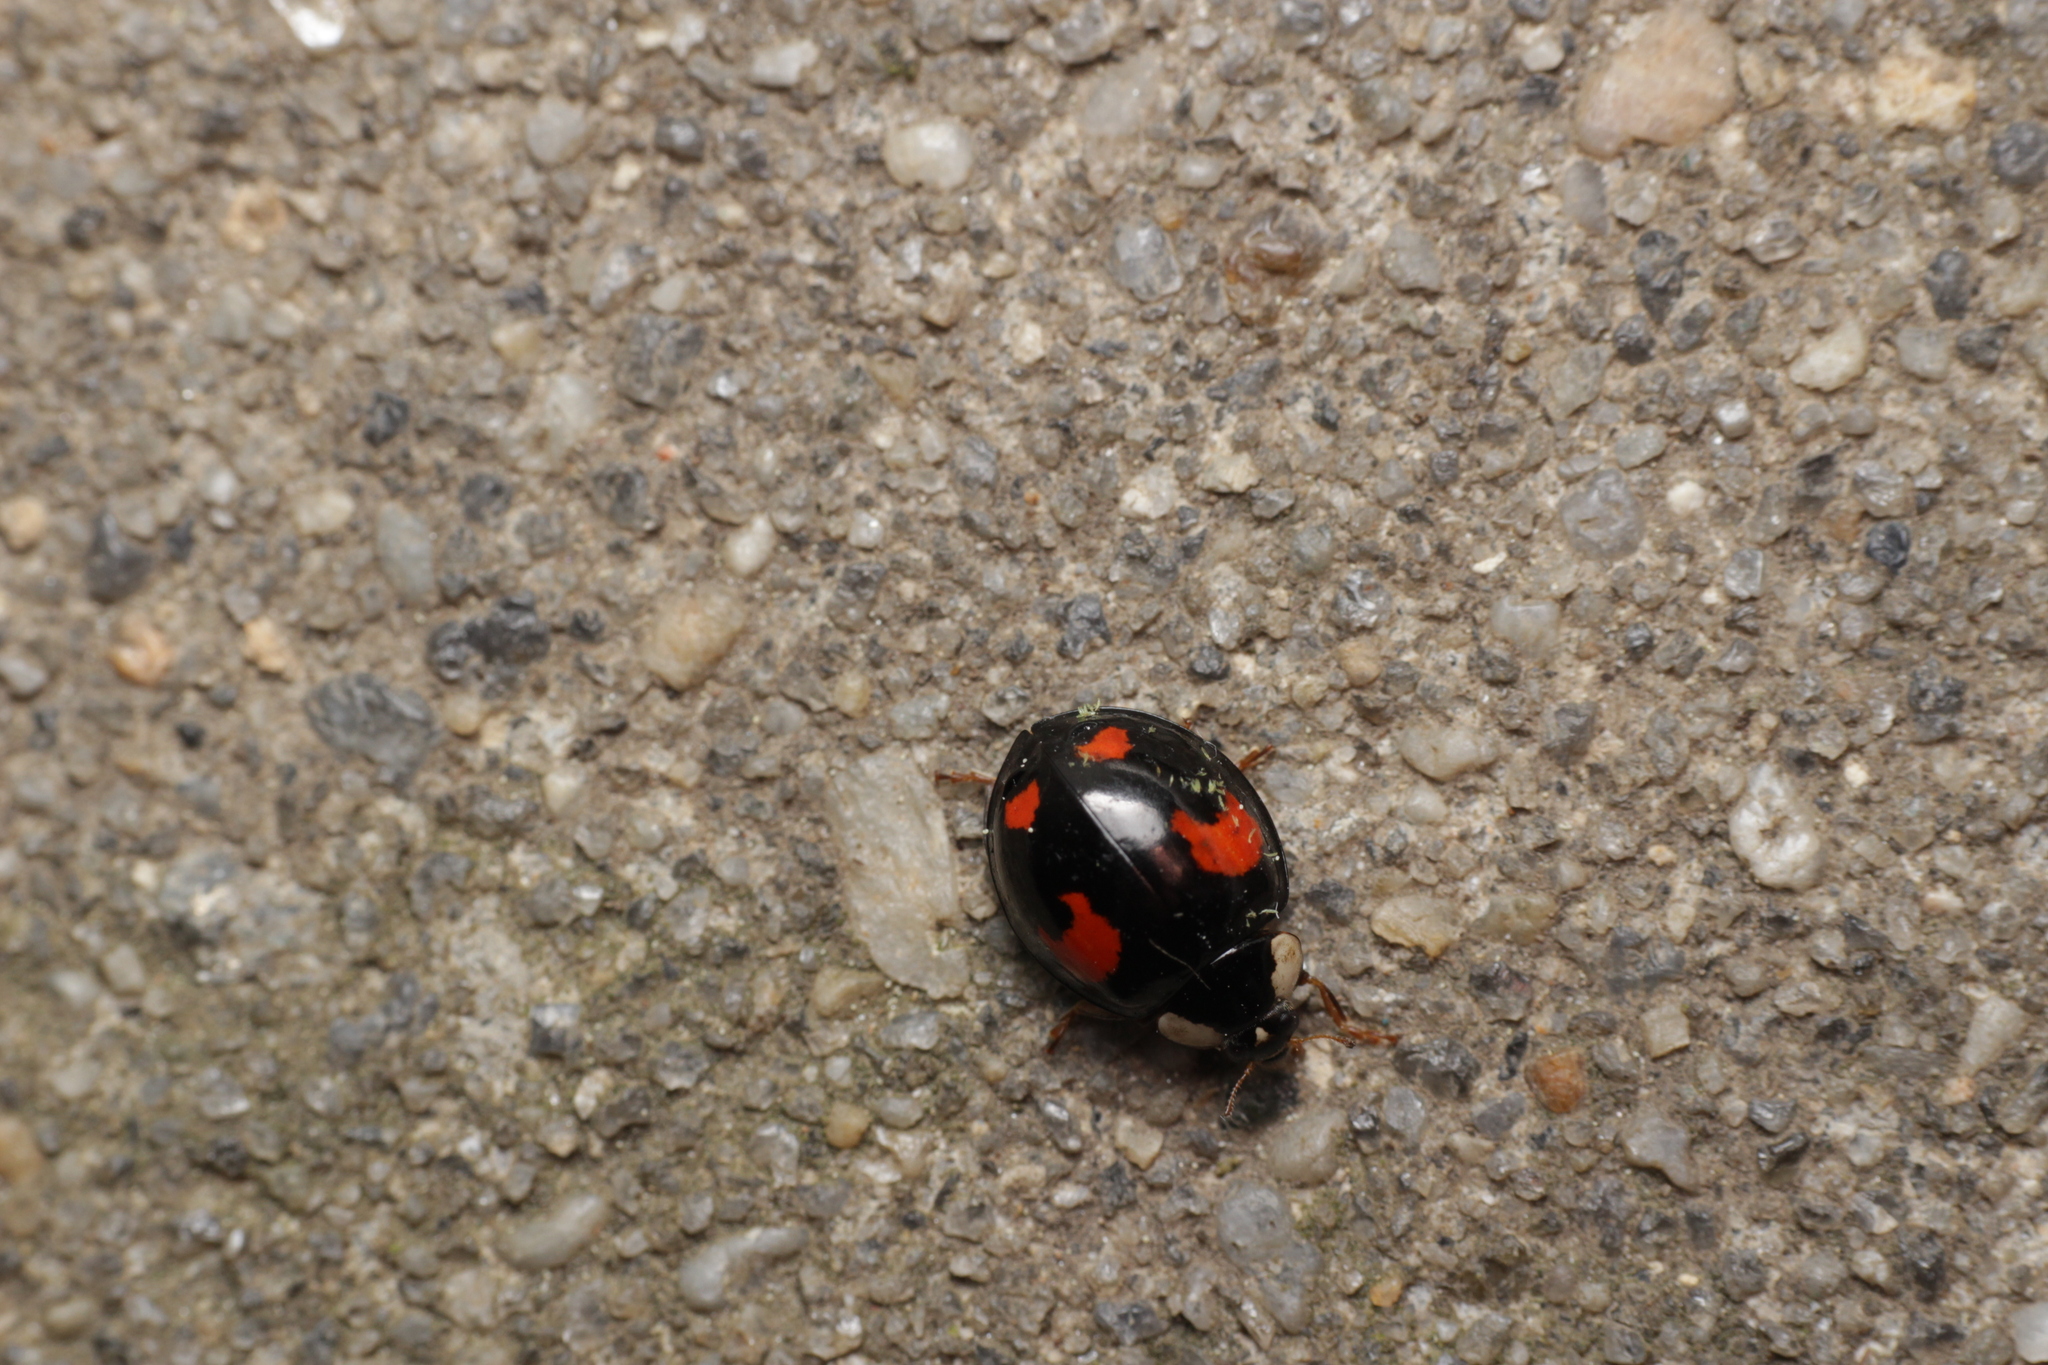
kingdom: Animalia
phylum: Arthropoda
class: Insecta
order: Coleoptera
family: Coccinellidae
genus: Harmonia
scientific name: Harmonia axyridis
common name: Harlequin ladybird
